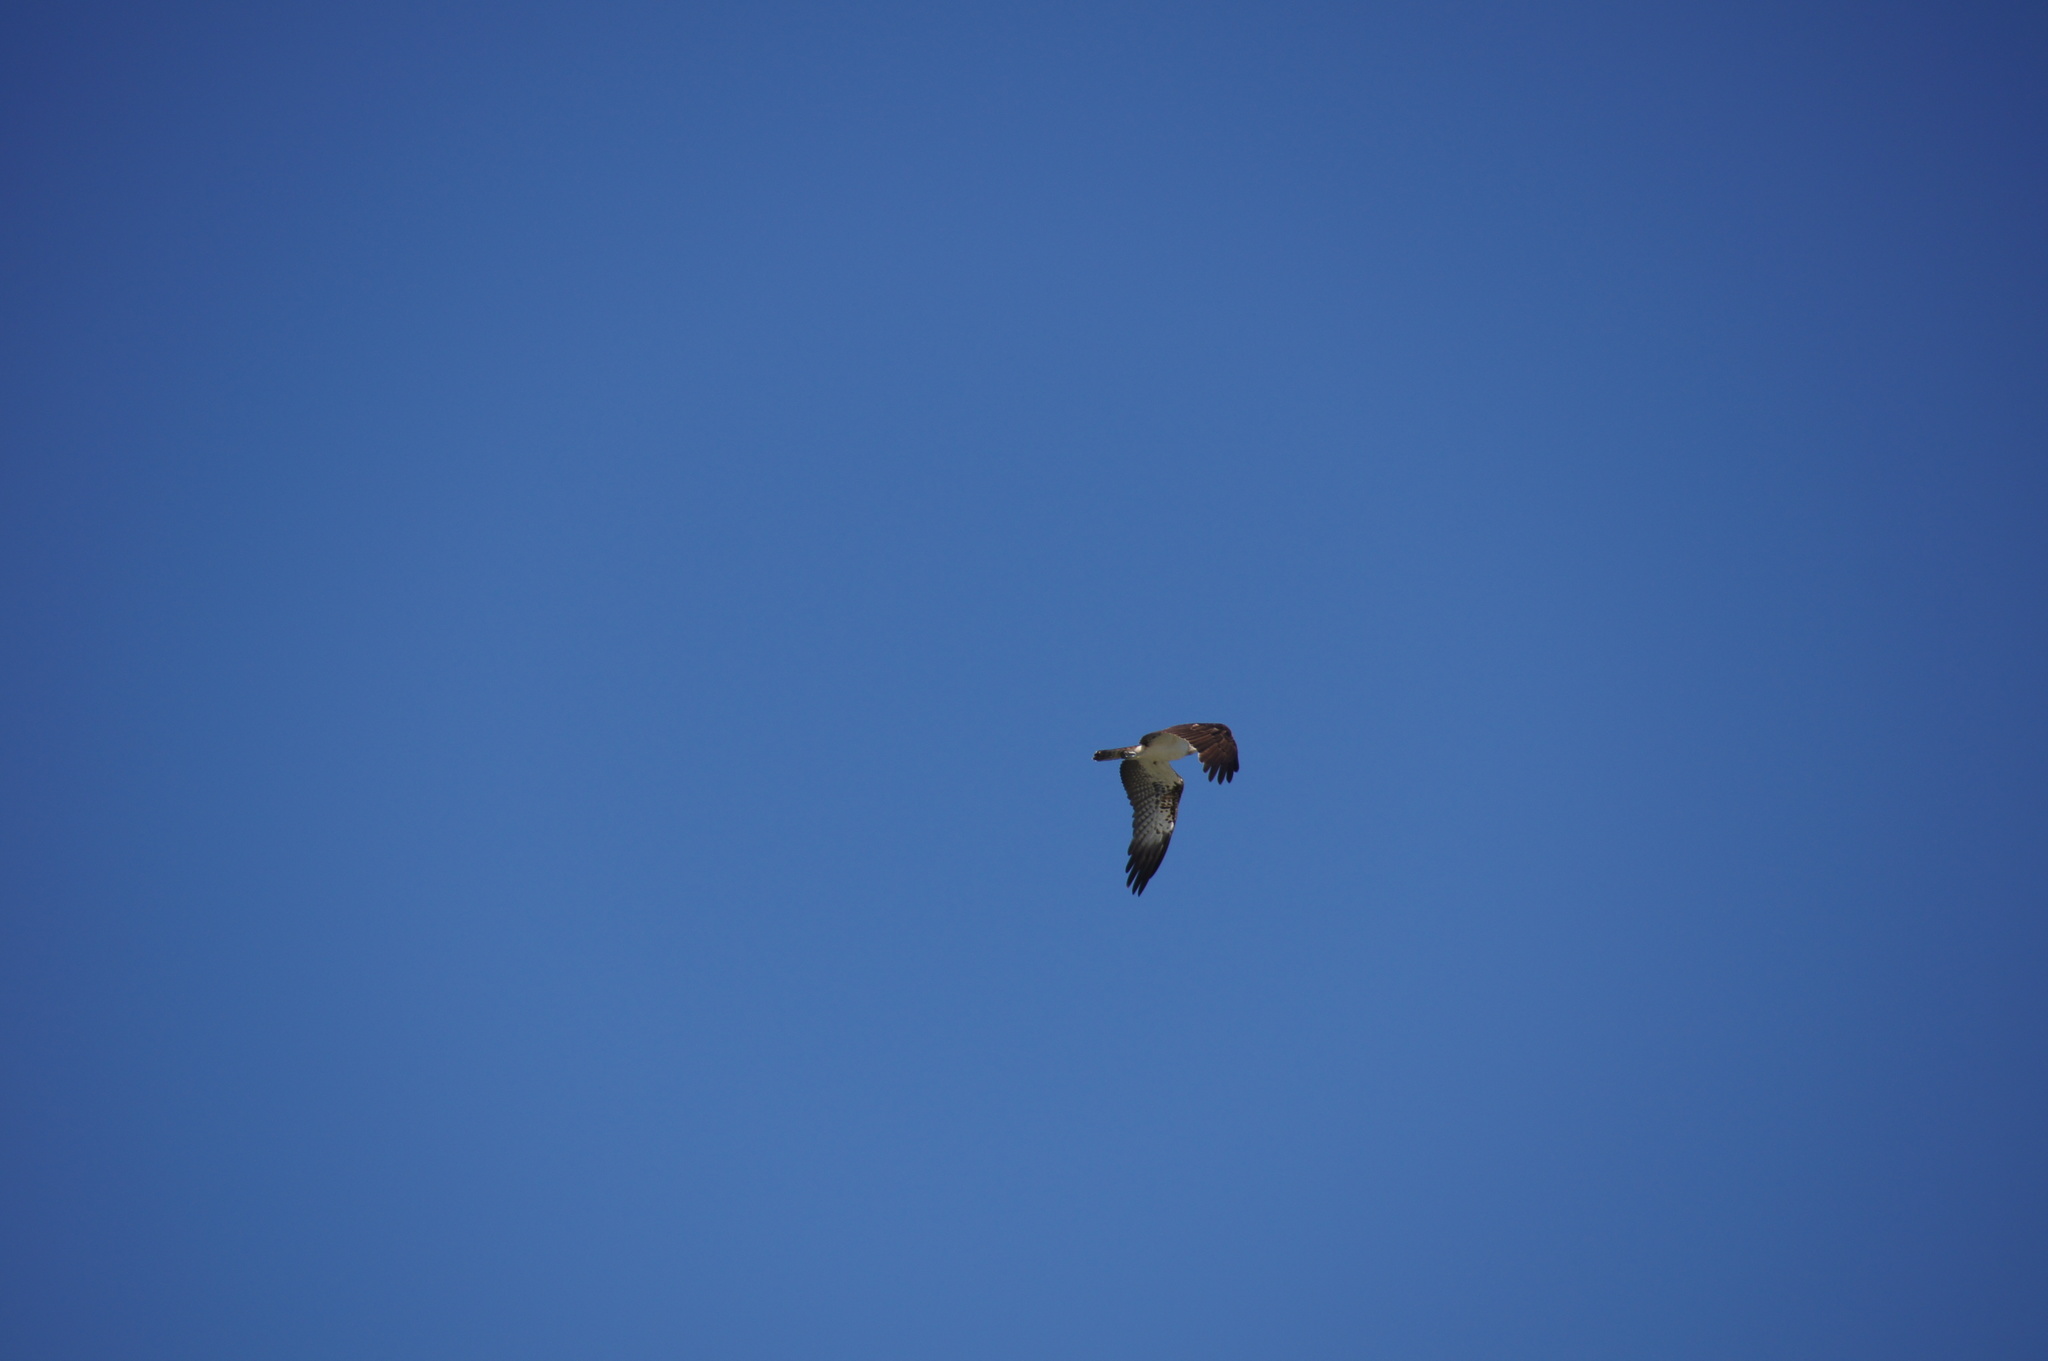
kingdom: Animalia
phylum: Chordata
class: Aves
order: Accipitriformes
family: Pandionidae
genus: Pandion
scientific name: Pandion haliaetus
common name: Osprey
